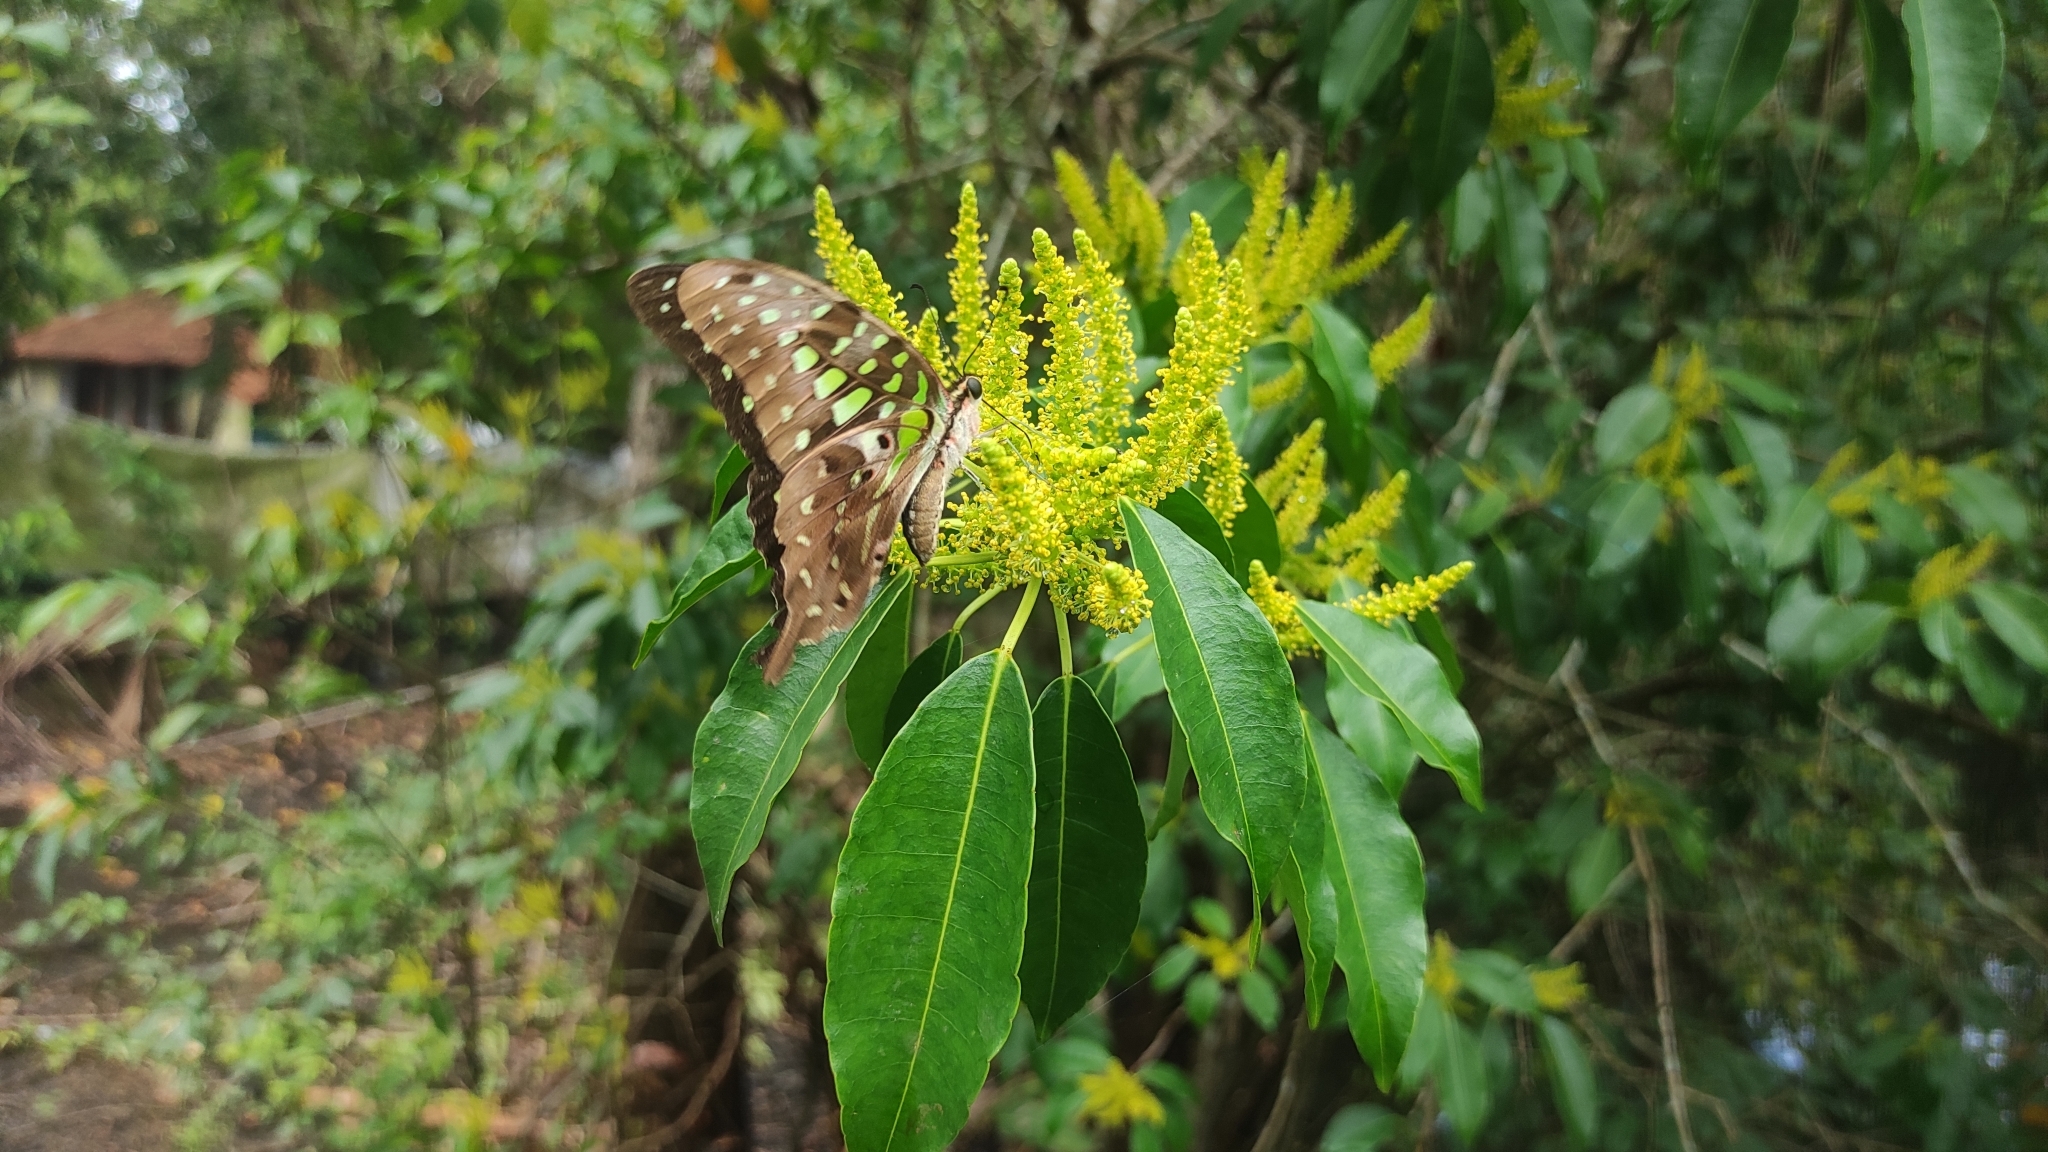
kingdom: Animalia
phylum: Arthropoda
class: Insecta
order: Lepidoptera
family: Papilionidae
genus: Graphium
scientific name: Graphium agamemnon
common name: Tailed jay
